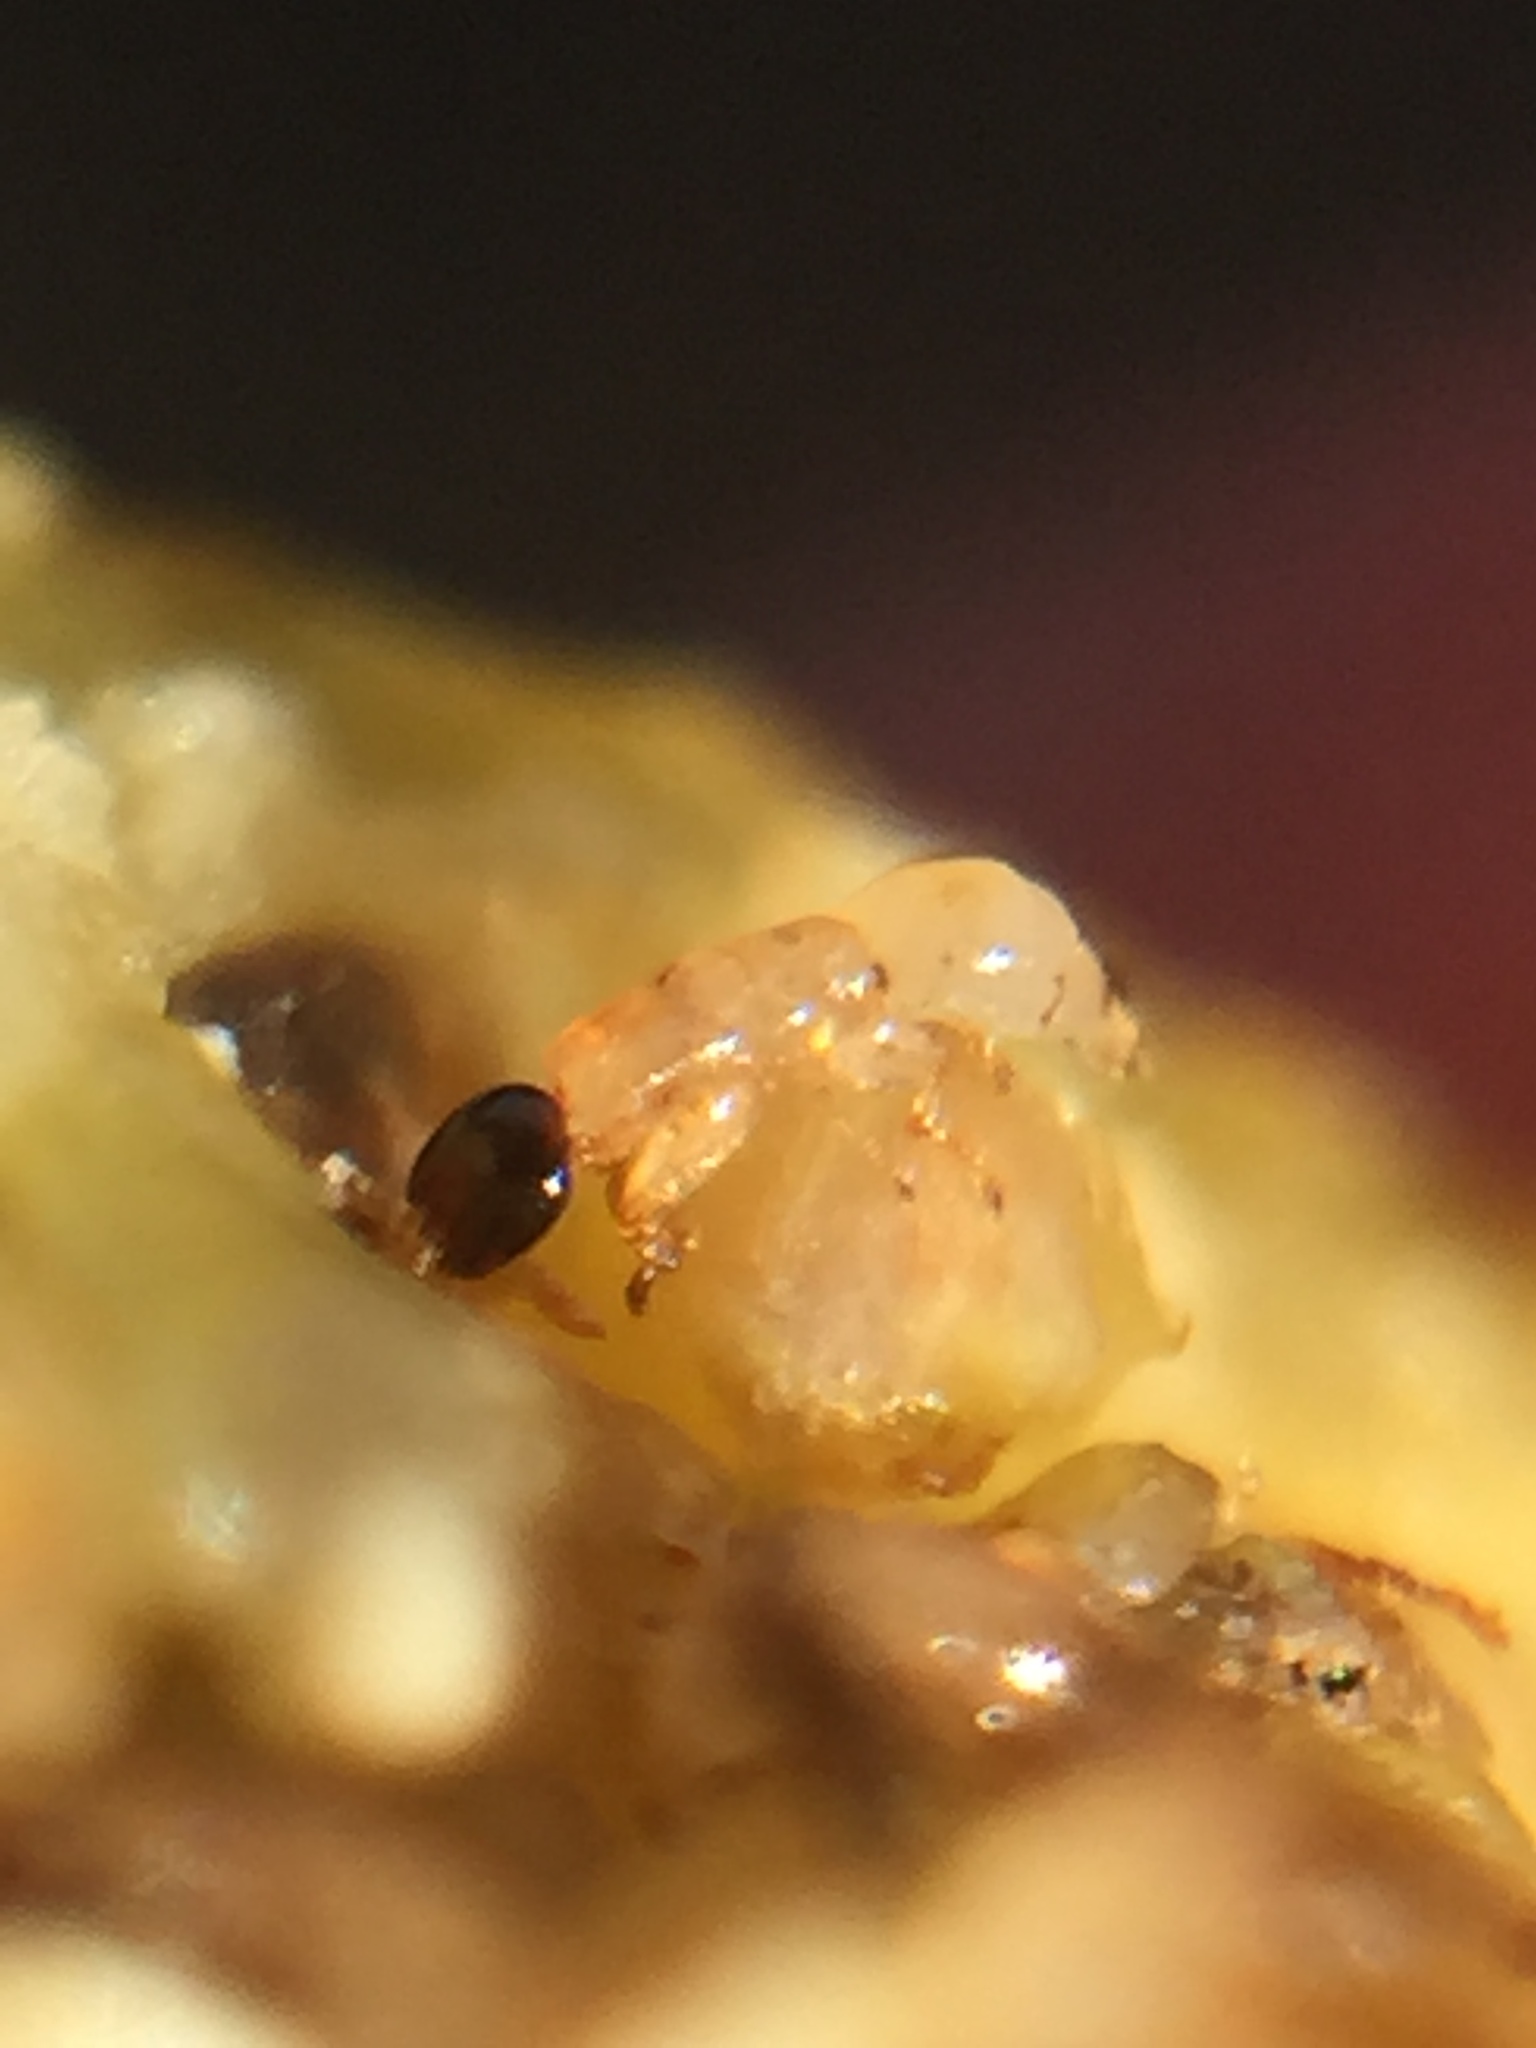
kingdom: Animalia
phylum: Arthropoda
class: Insecta
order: Hymenoptera
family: Agaonidae
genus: Pleistodontes
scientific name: Pleistodontes imperialis
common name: Fig wasp
